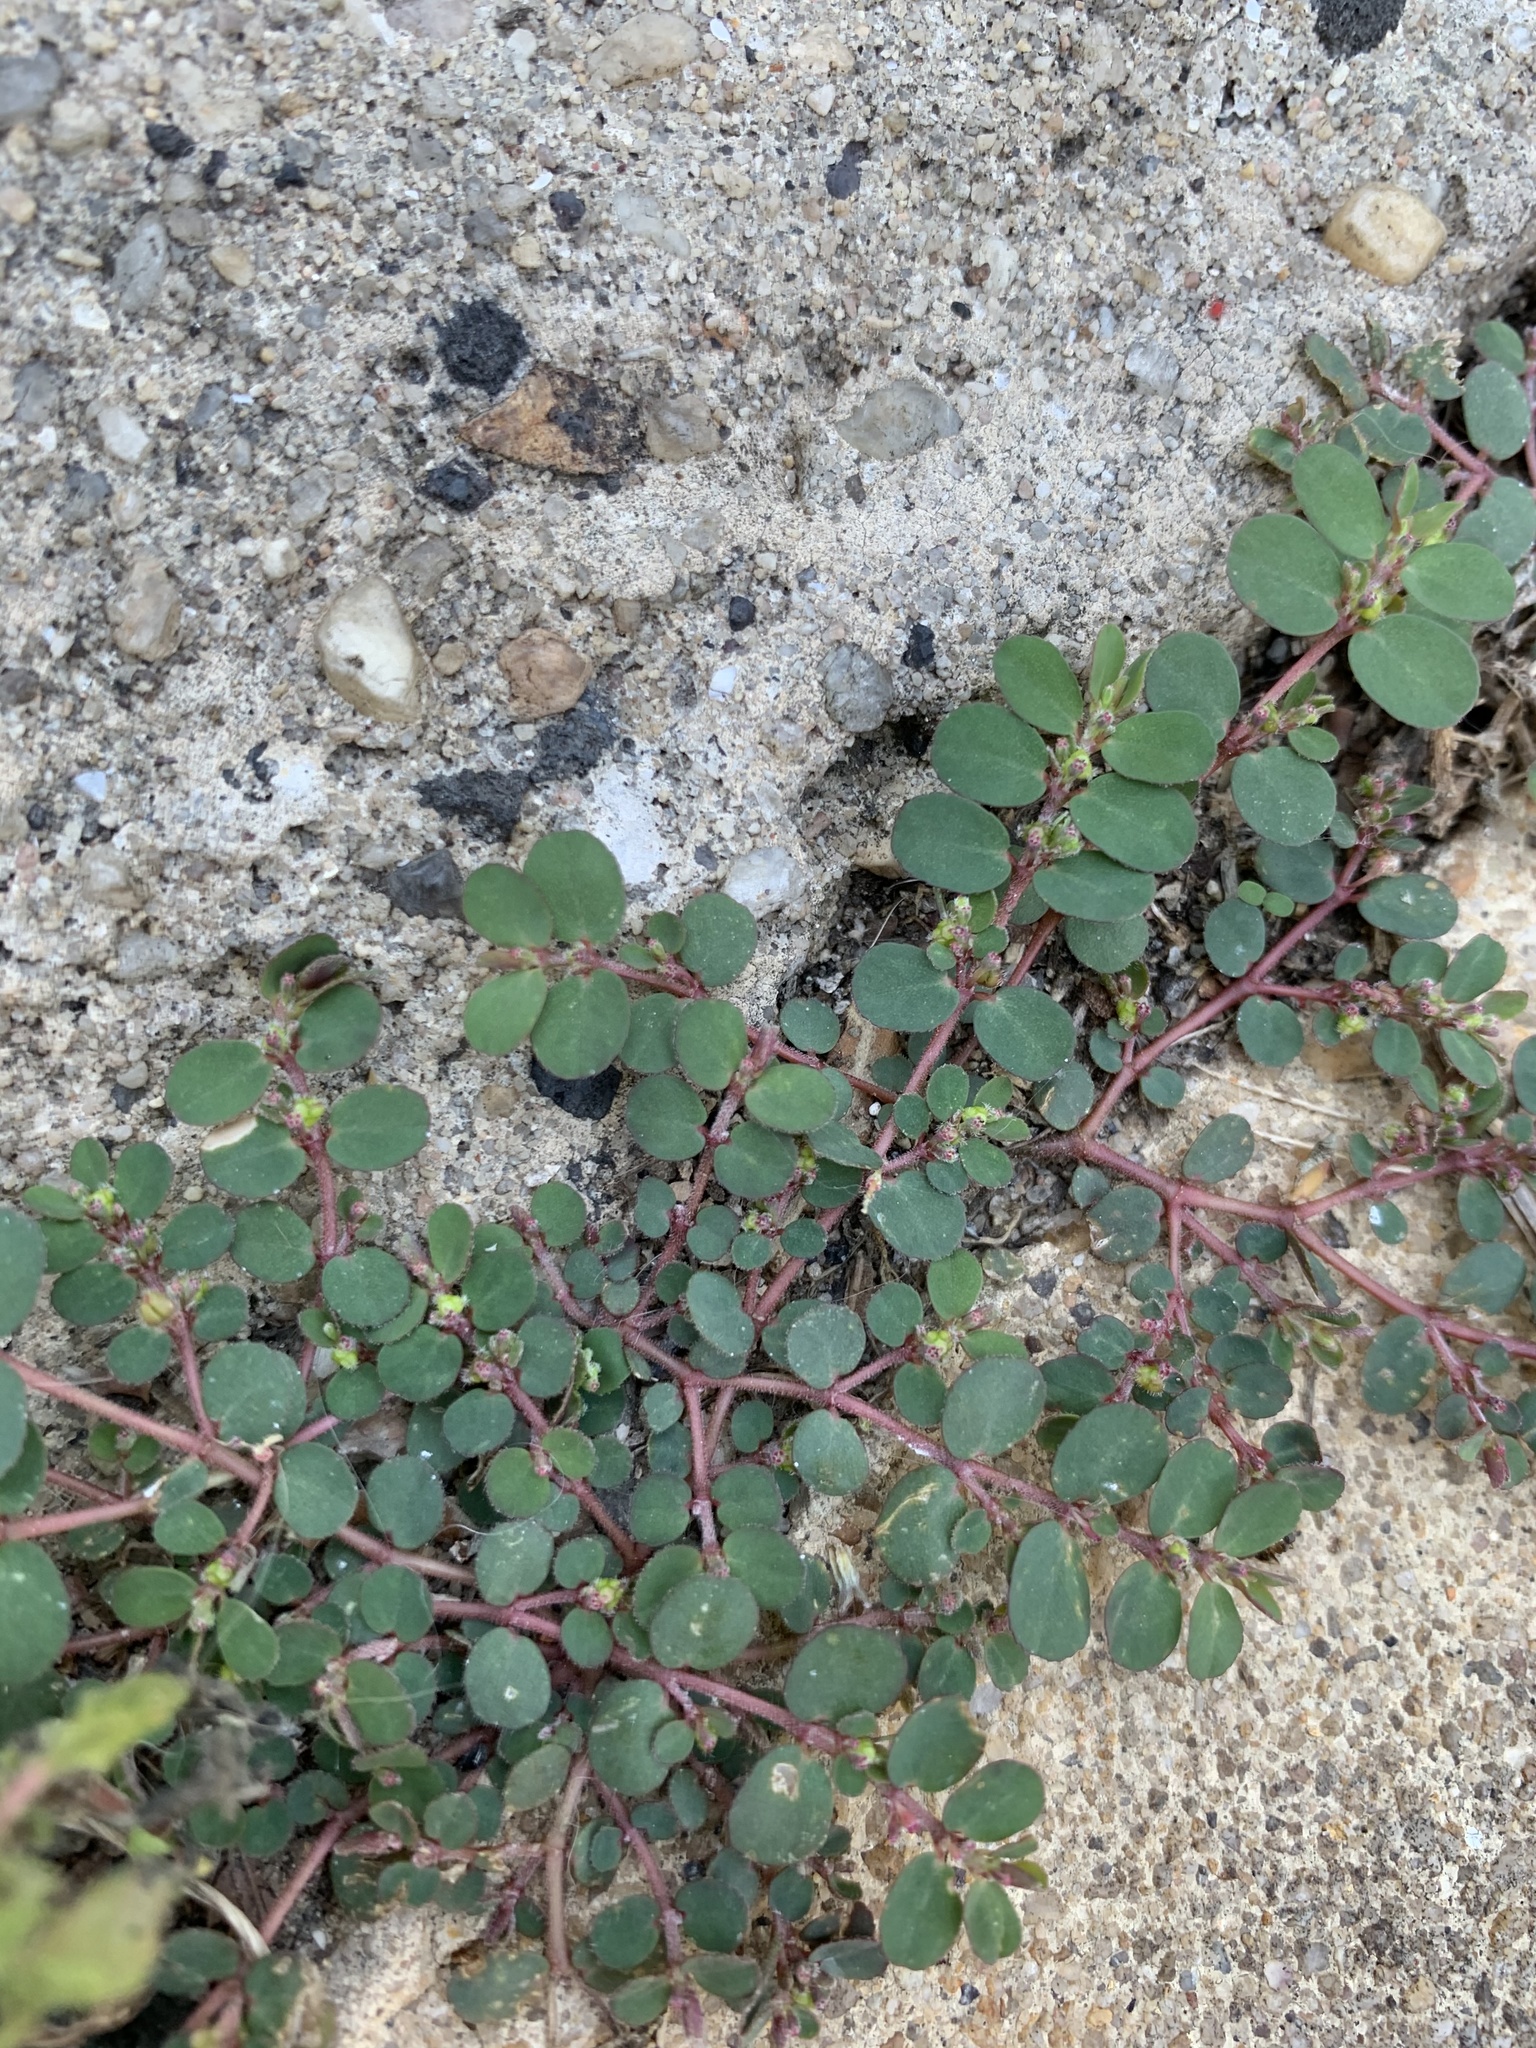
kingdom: Plantae
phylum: Tracheophyta
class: Magnoliopsida
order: Malpighiales
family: Euphorbiaceae
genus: Euphorbia
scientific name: Euphorbia prostrata
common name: Prostrate sandmat
